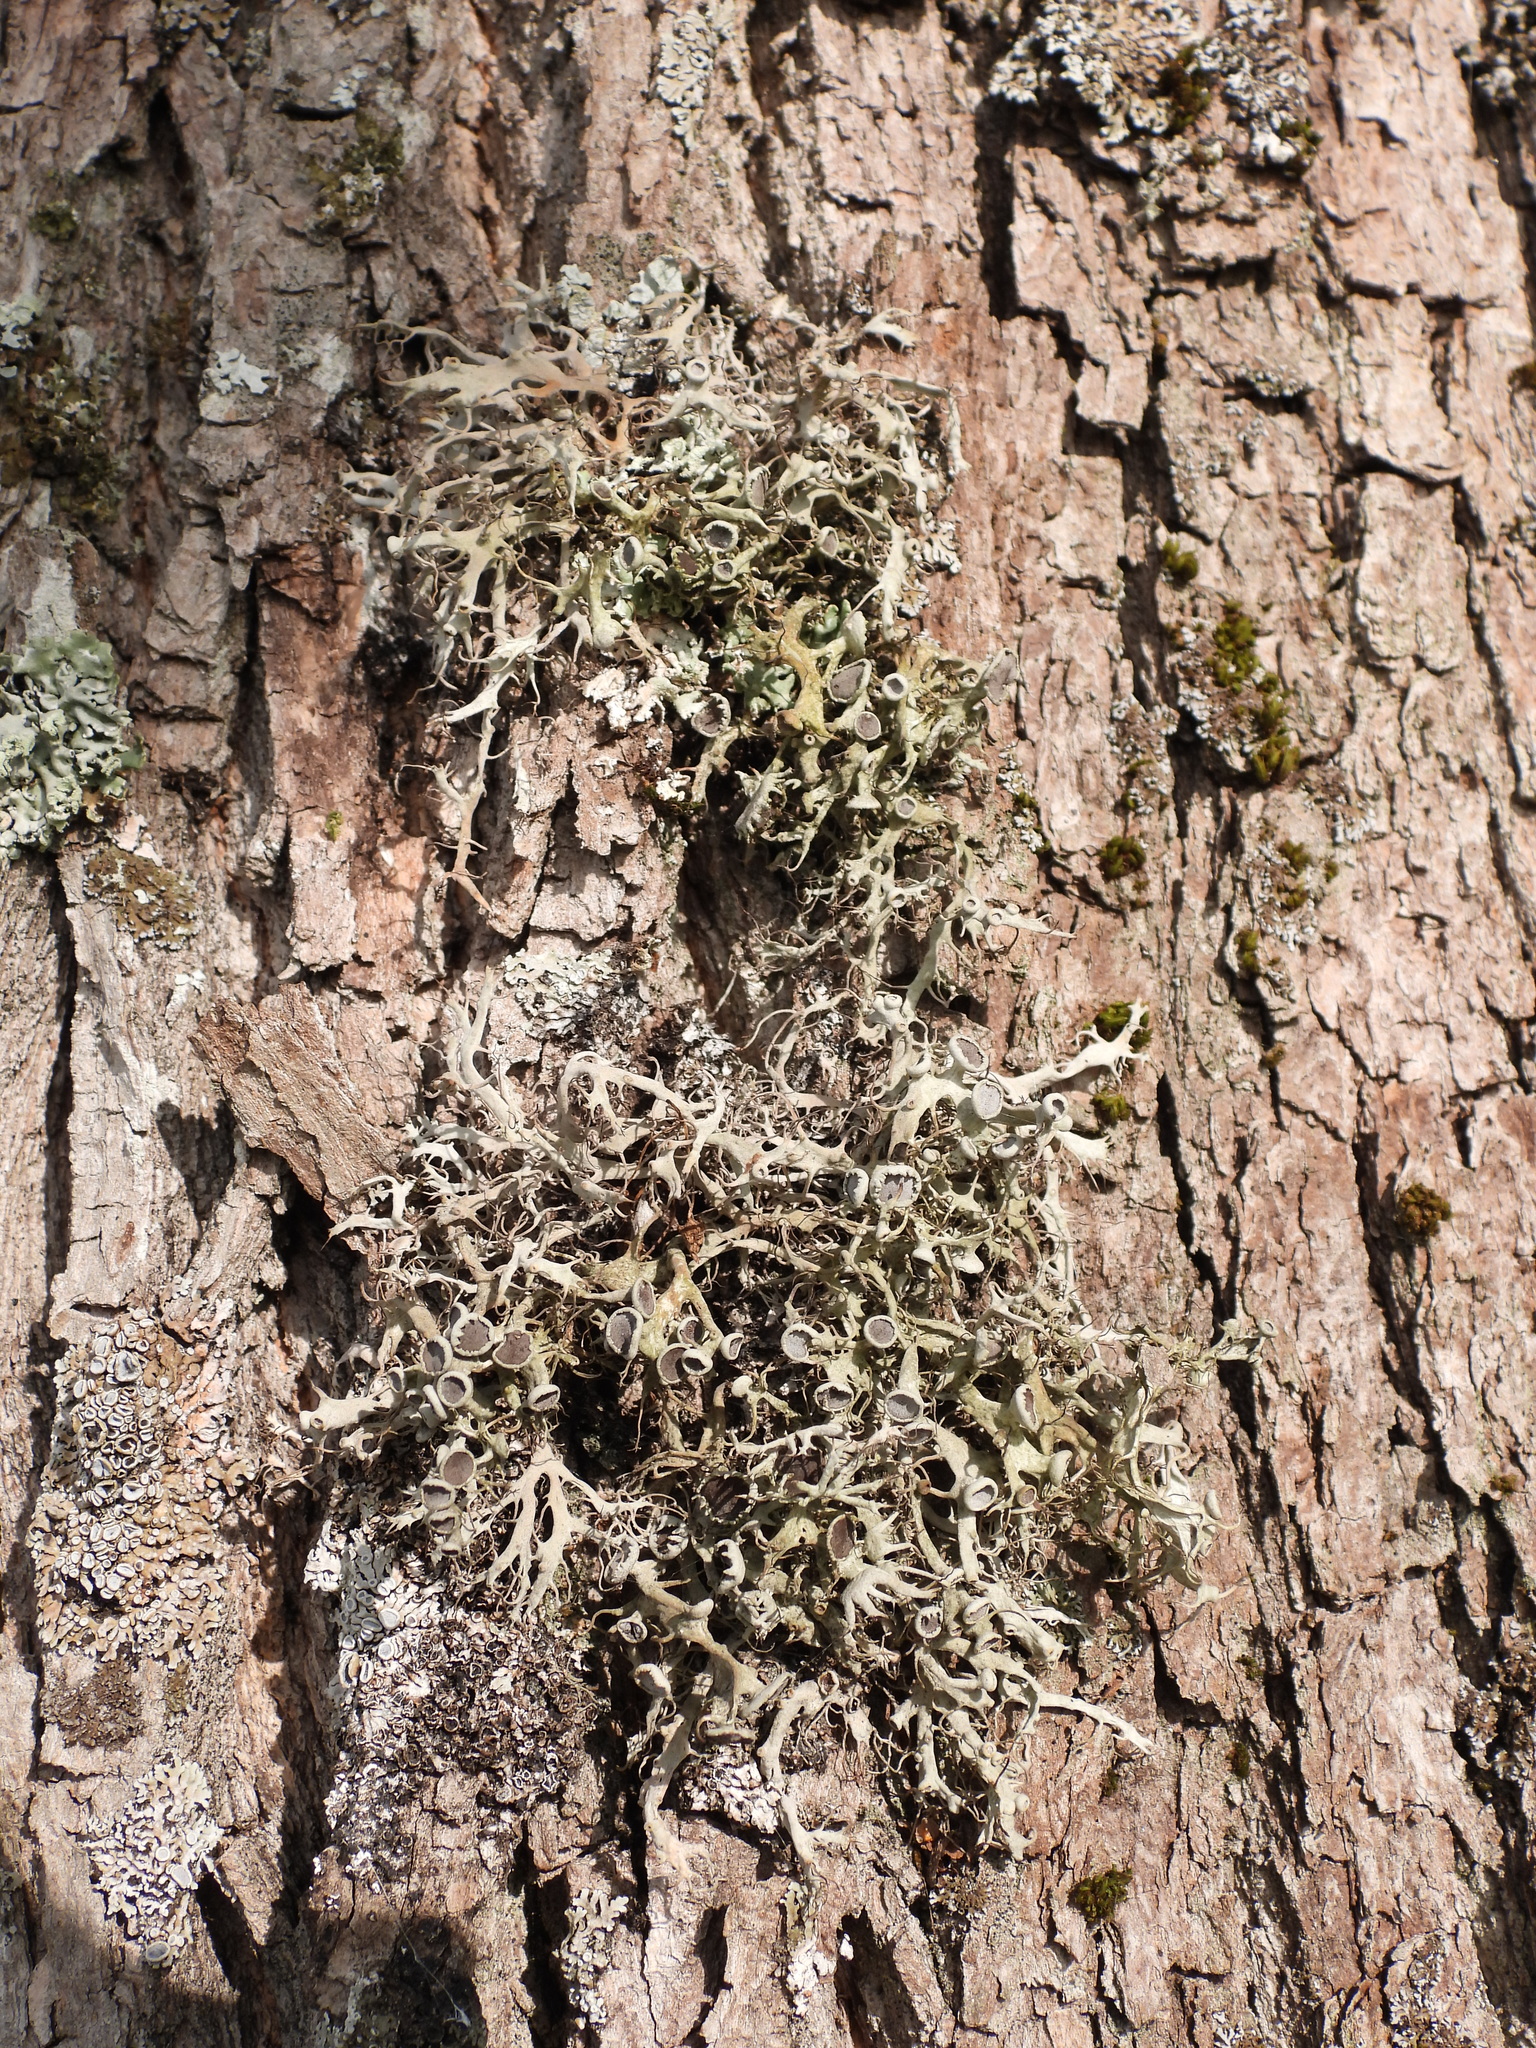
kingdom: Fungi
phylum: Ascomycota
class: Lecanoromycetes
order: Caliciales
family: Physciaceae
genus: Anaptychia
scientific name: Anaptychia ciliaris
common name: Great ciliated lichen
